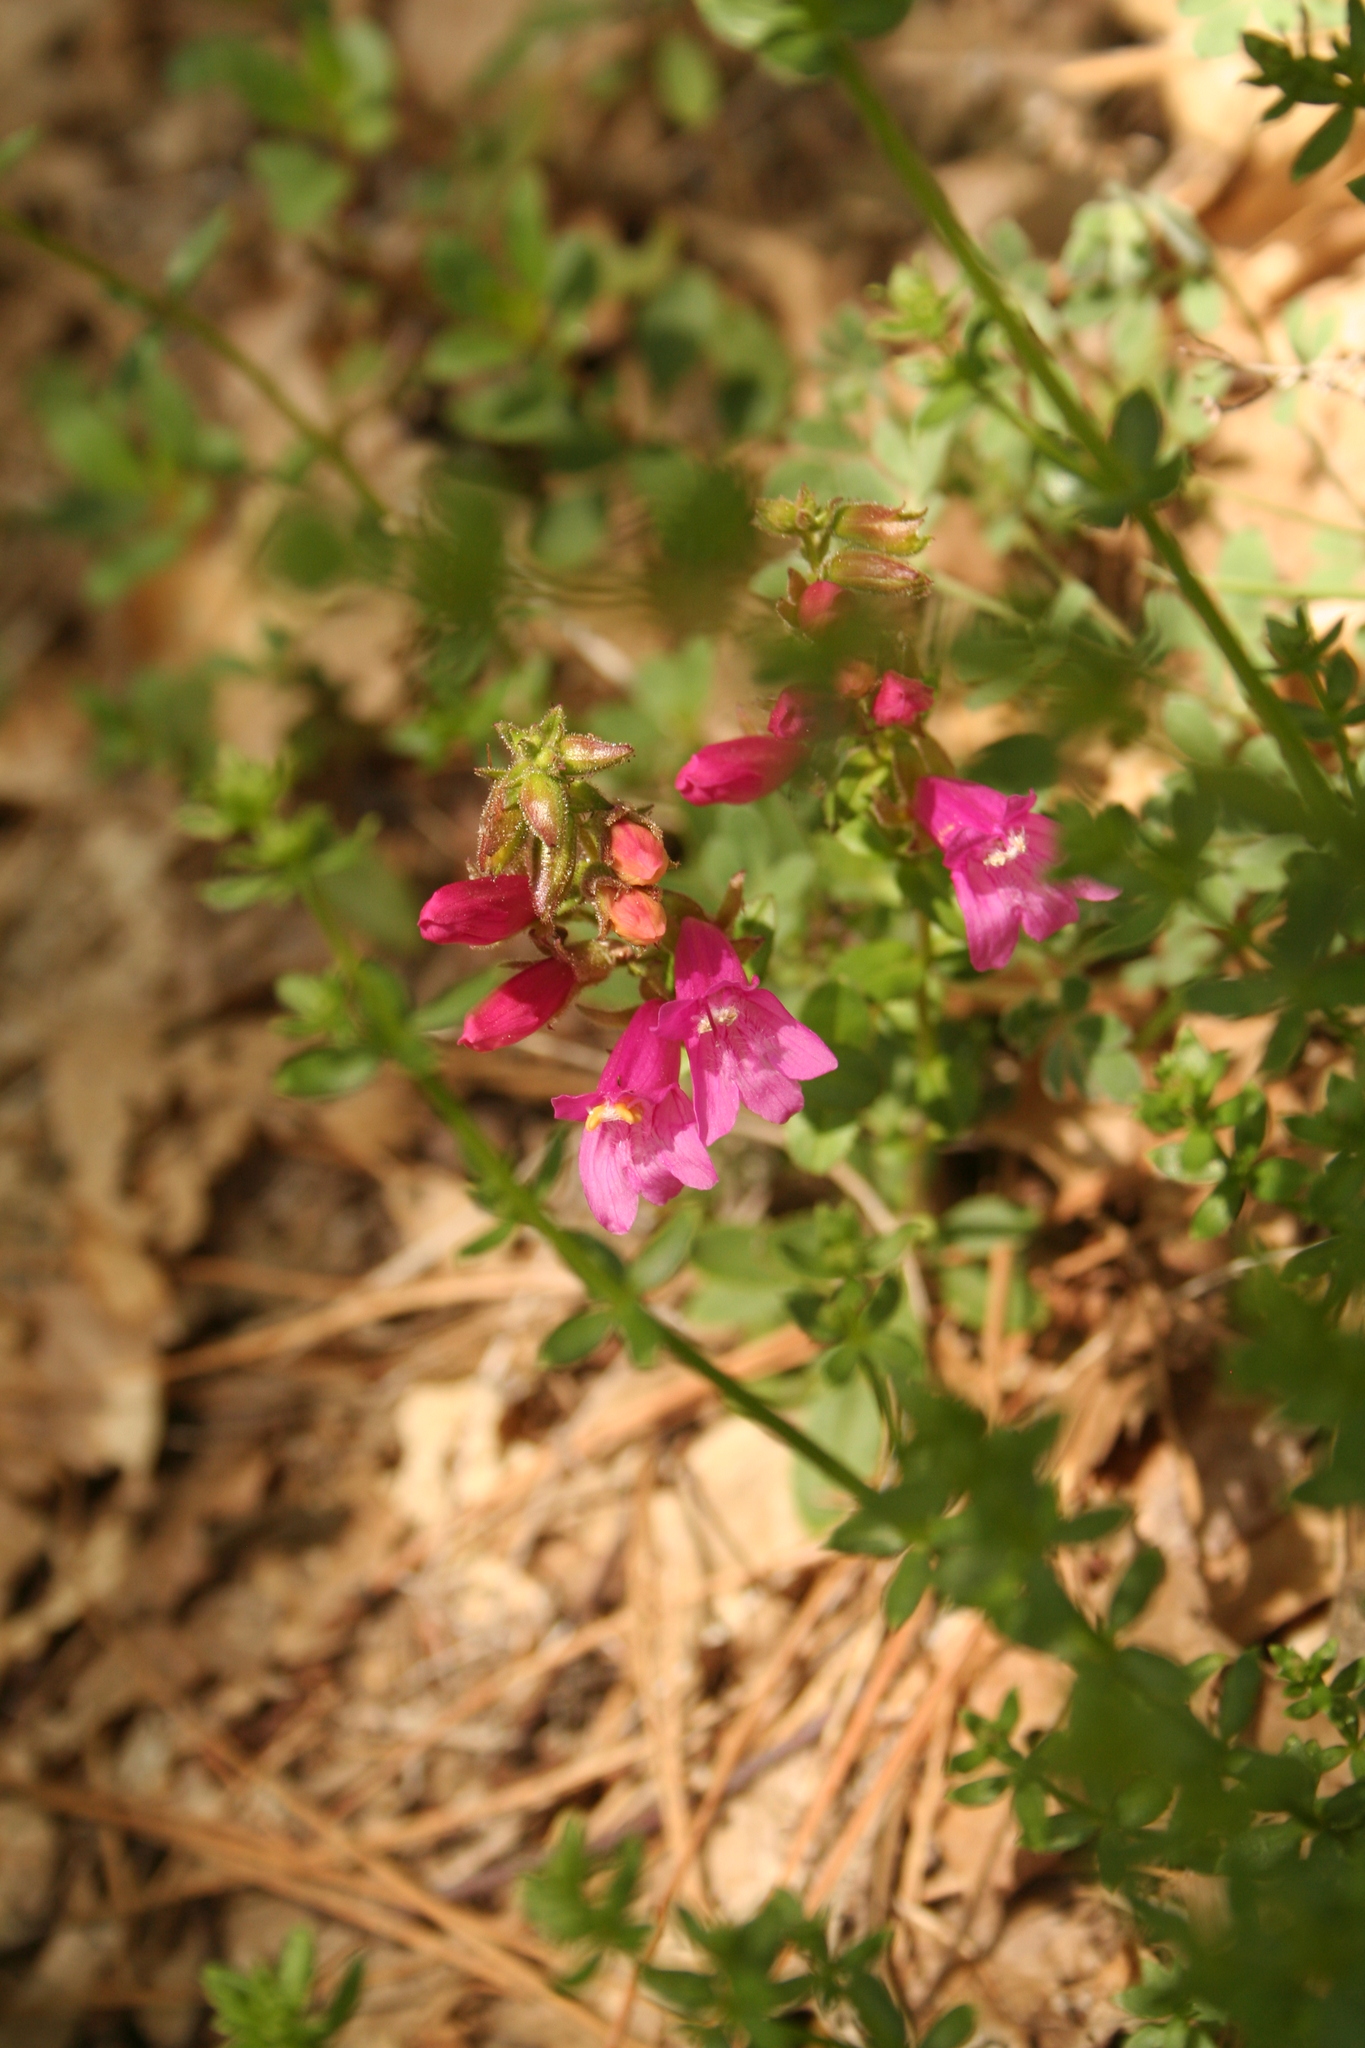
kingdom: Plantae
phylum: Tracheophyta
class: Magnoliopsida
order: Lamiales
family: Plantaginaceae
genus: Penstemon
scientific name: Penstemon newberryi
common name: Mountain-pride
